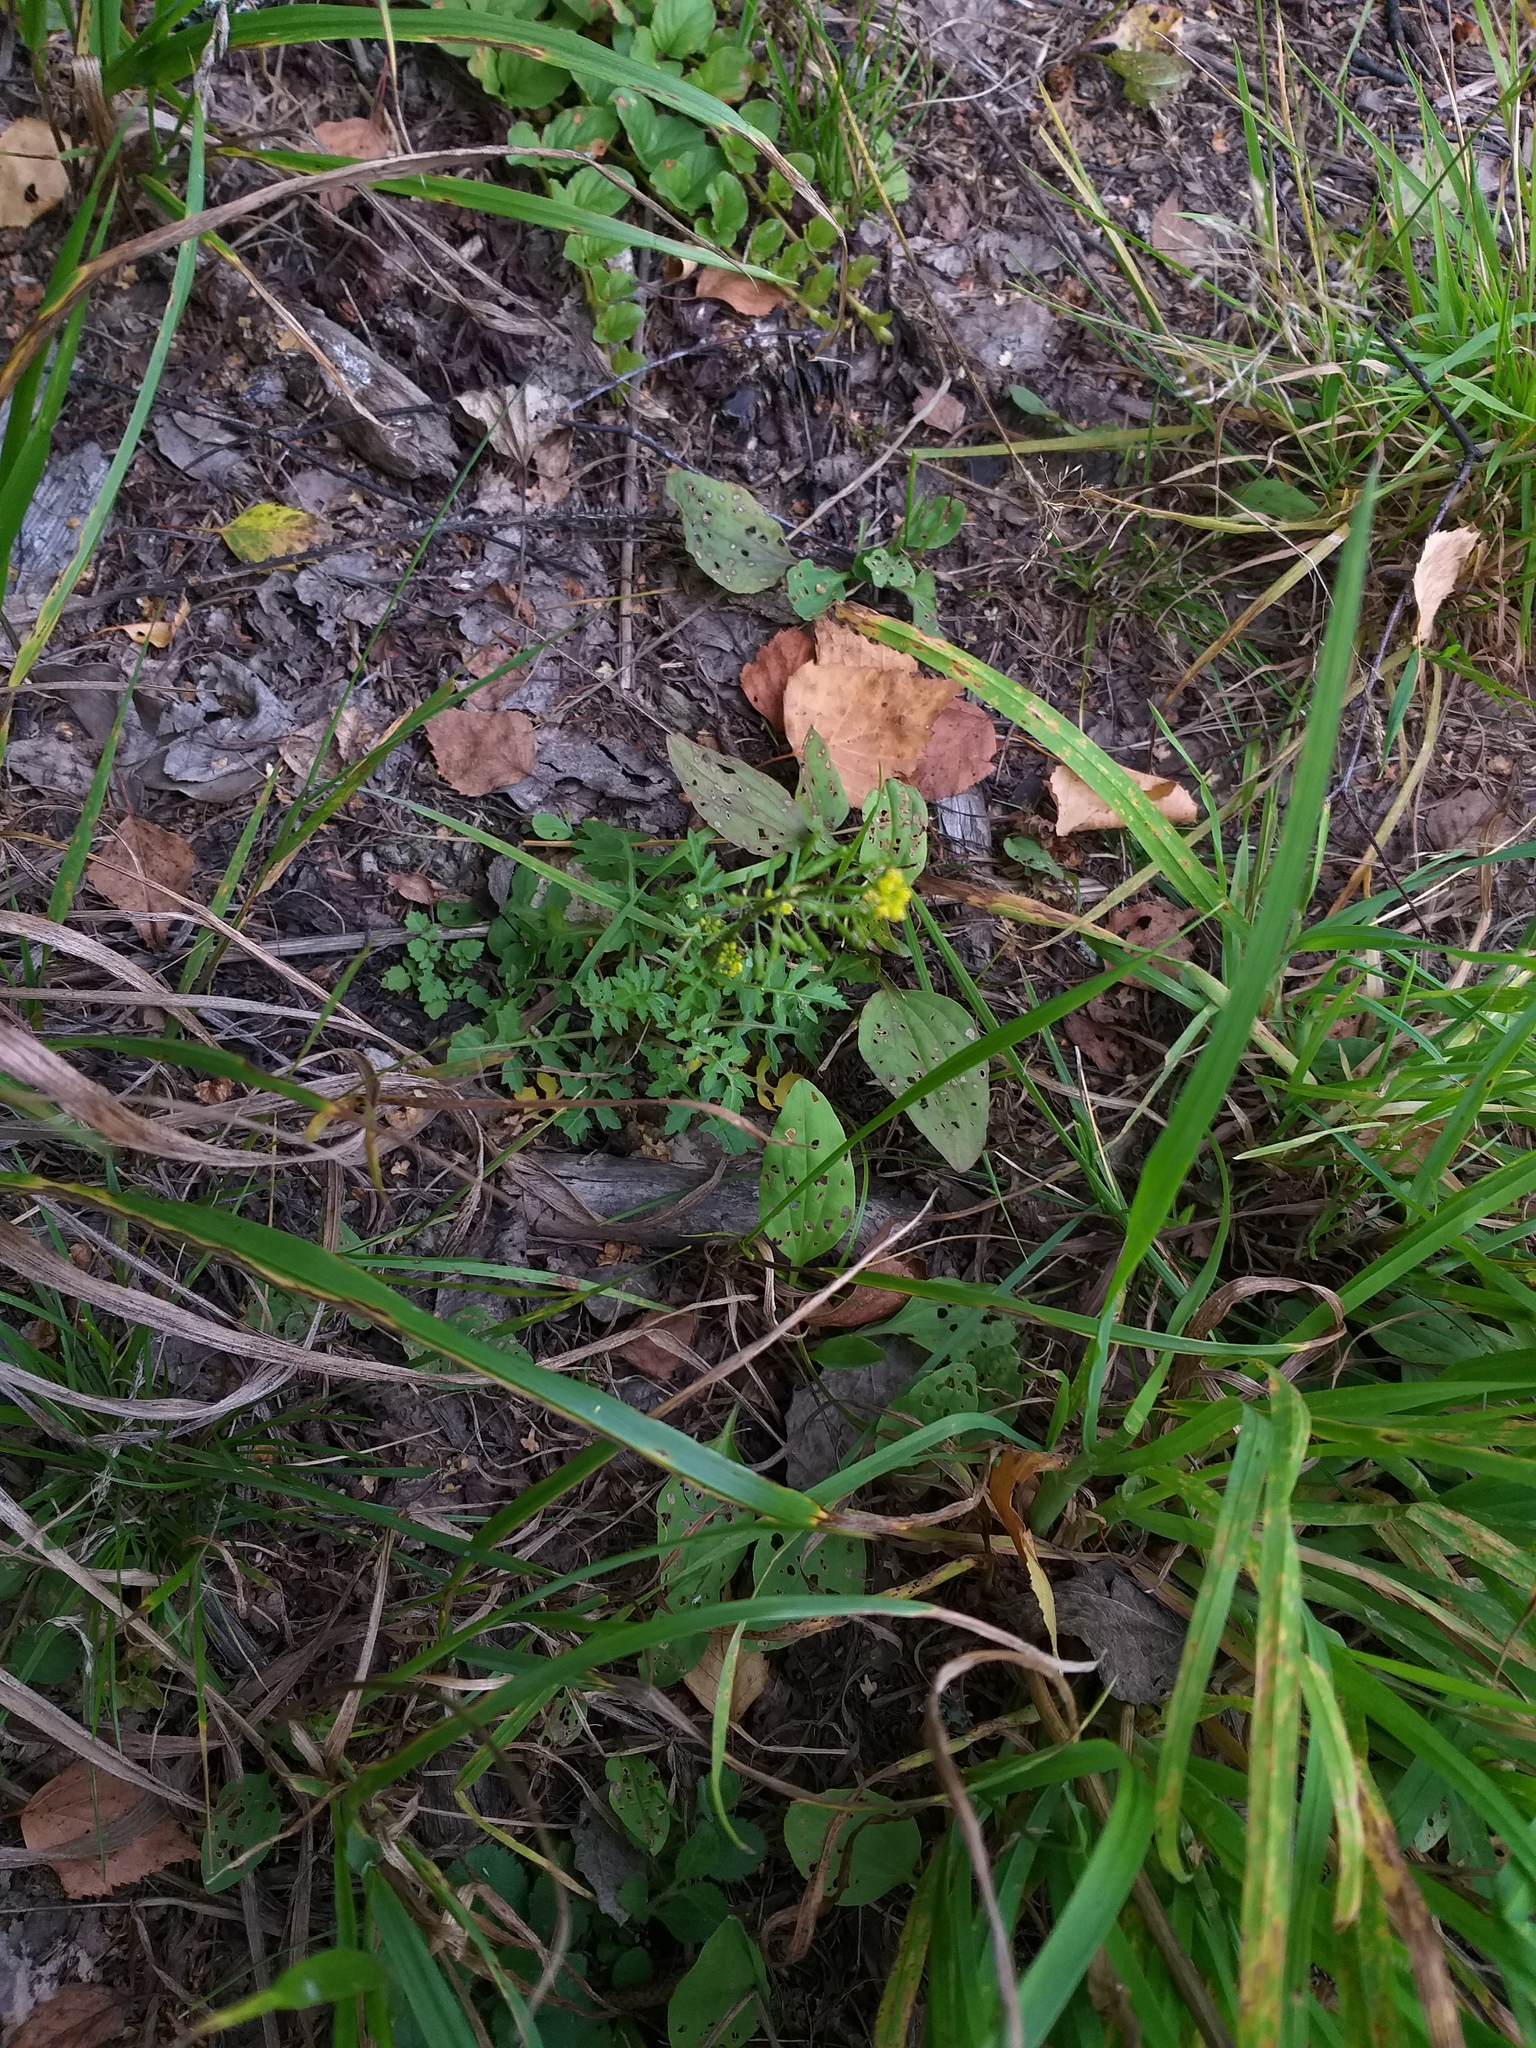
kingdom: Plantae
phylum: Tracheophyta
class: Magnoliopsida
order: Brassicales
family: Brassicaceae
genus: Rorippa
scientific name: Rorippa palustris
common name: Marsh yellow-cress
